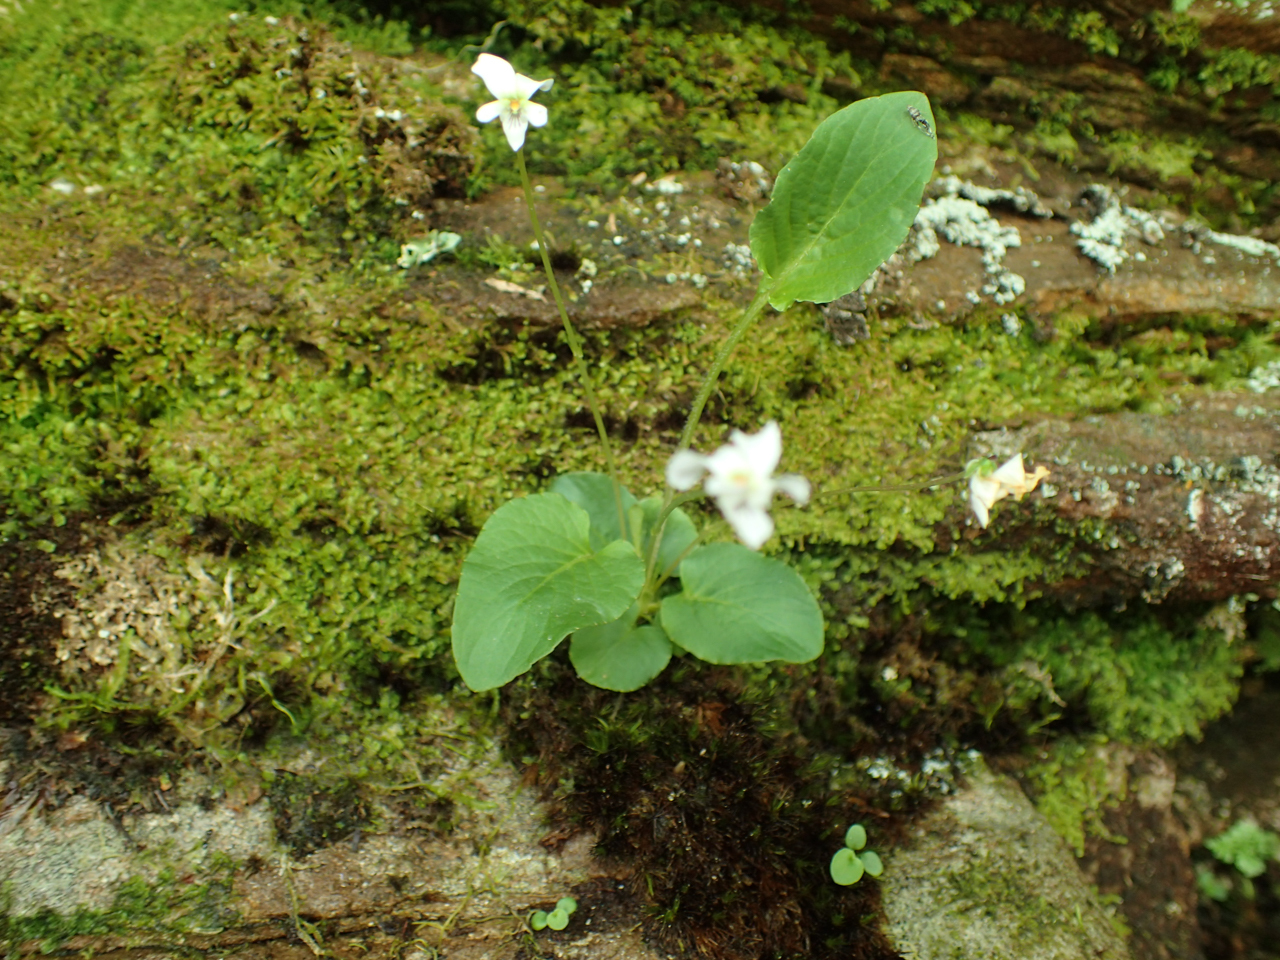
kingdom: Plantae
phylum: Tracheophyta
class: Magnoliopsida
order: Malpighiales
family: Violaceae
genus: Viola
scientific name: Viola primulifolia
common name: Primrose-leaf violet
